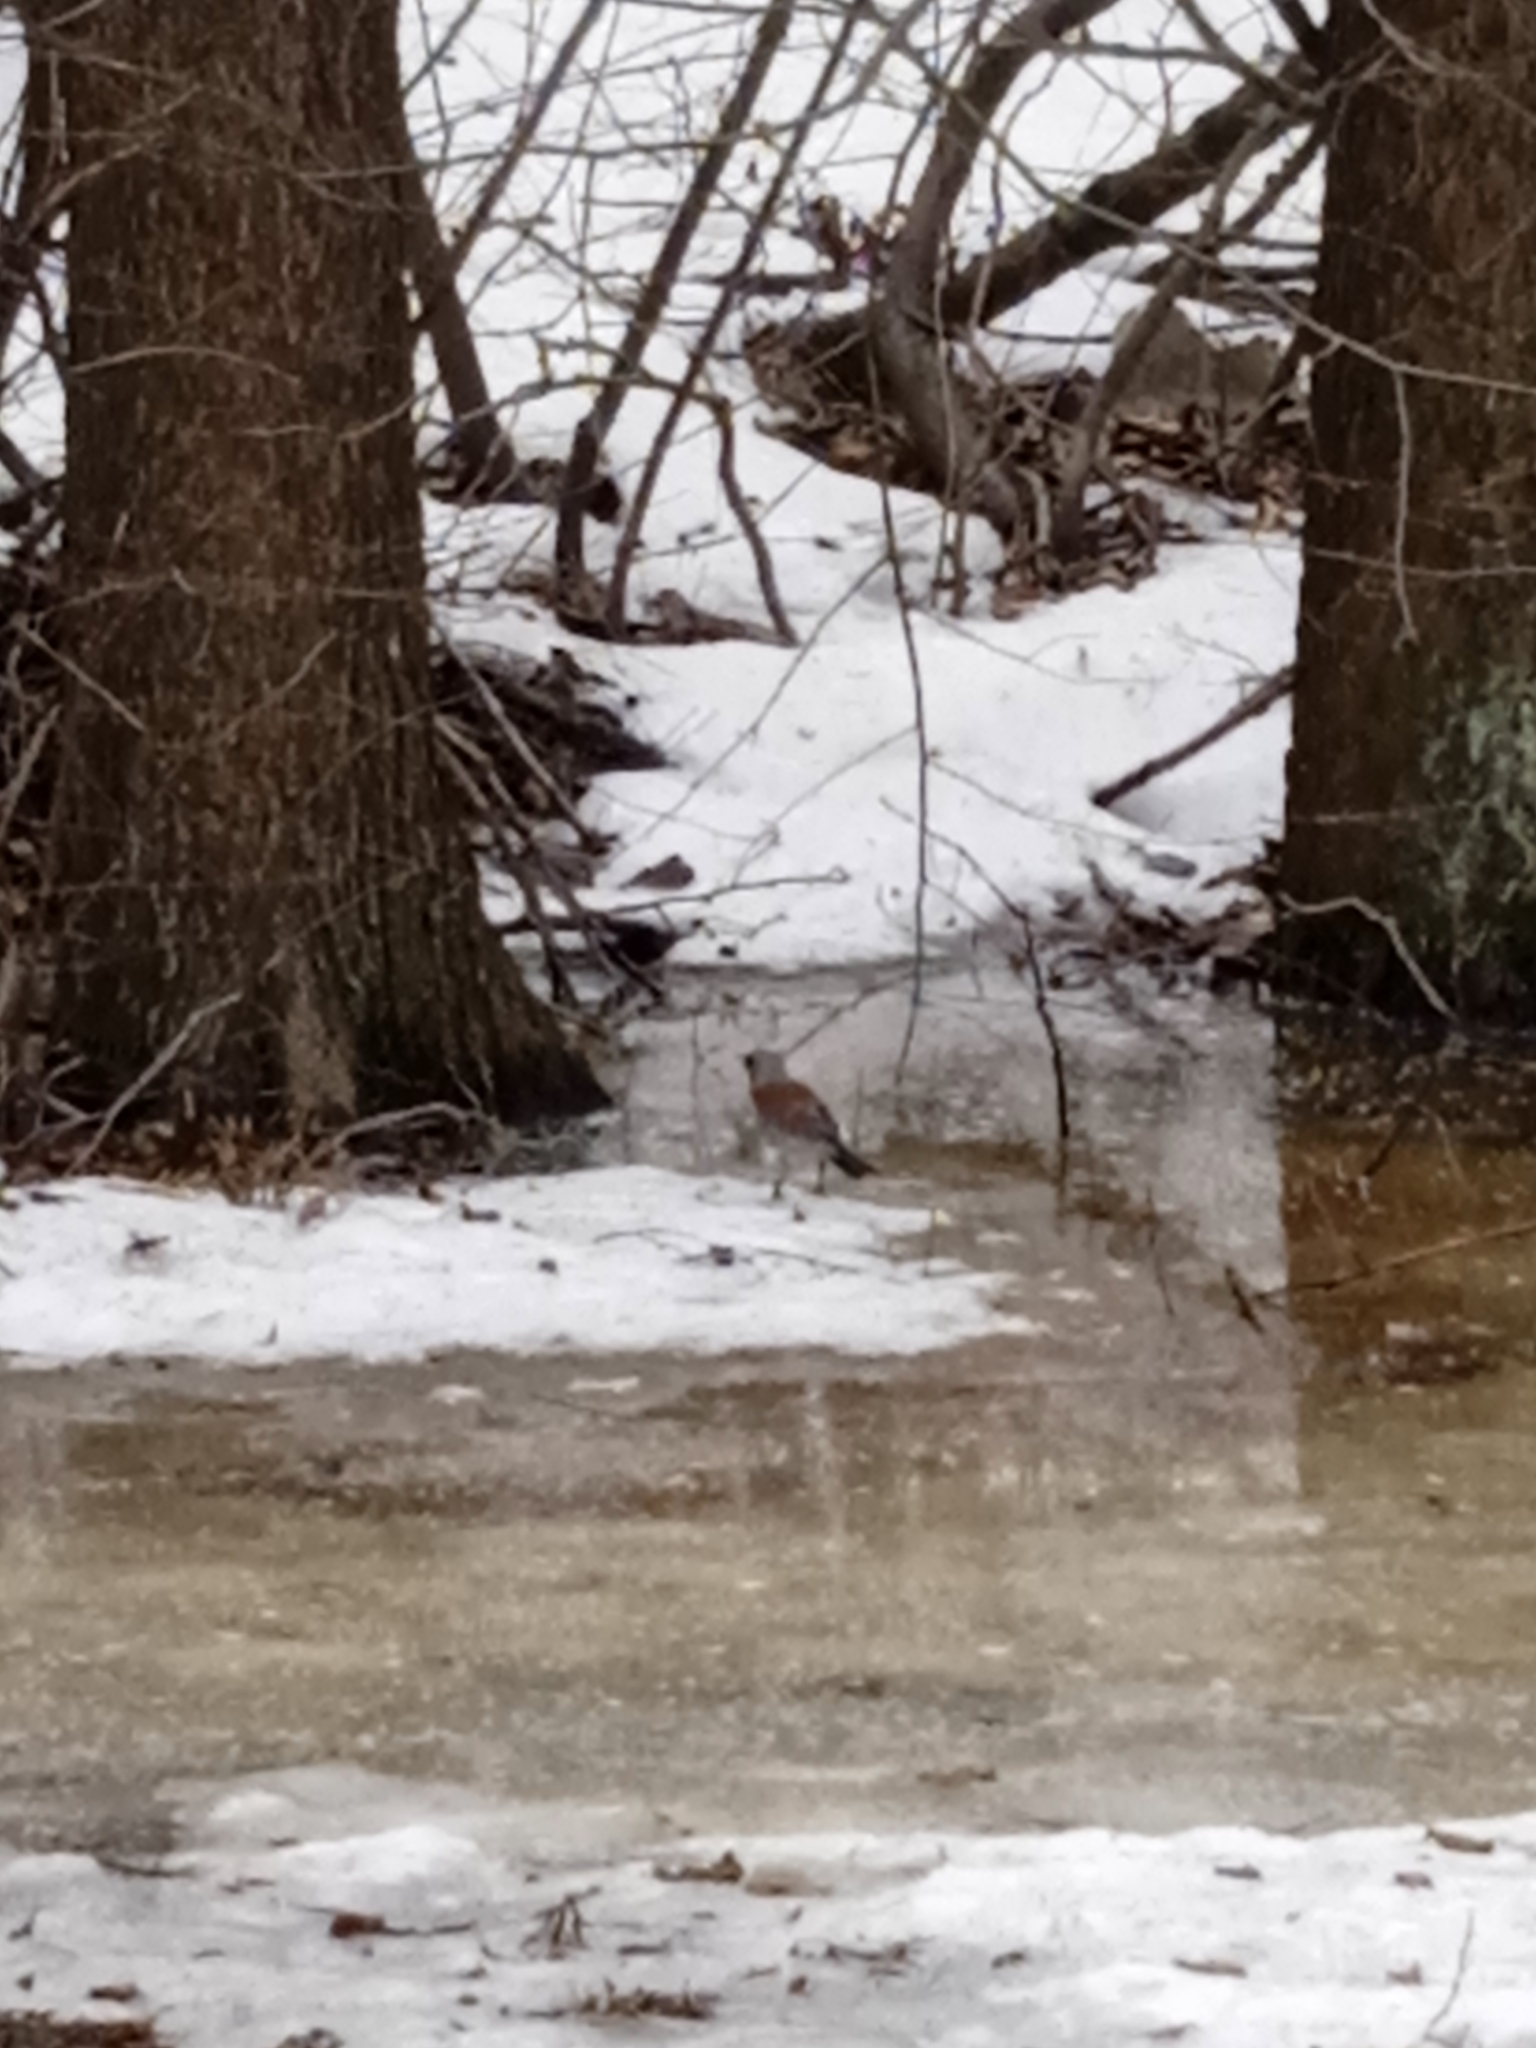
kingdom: Animalia
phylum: Chordata
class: Aves
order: Passeriformes
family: Turdidae
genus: Turdus
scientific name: Turdus pilaris
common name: Fieldfare
